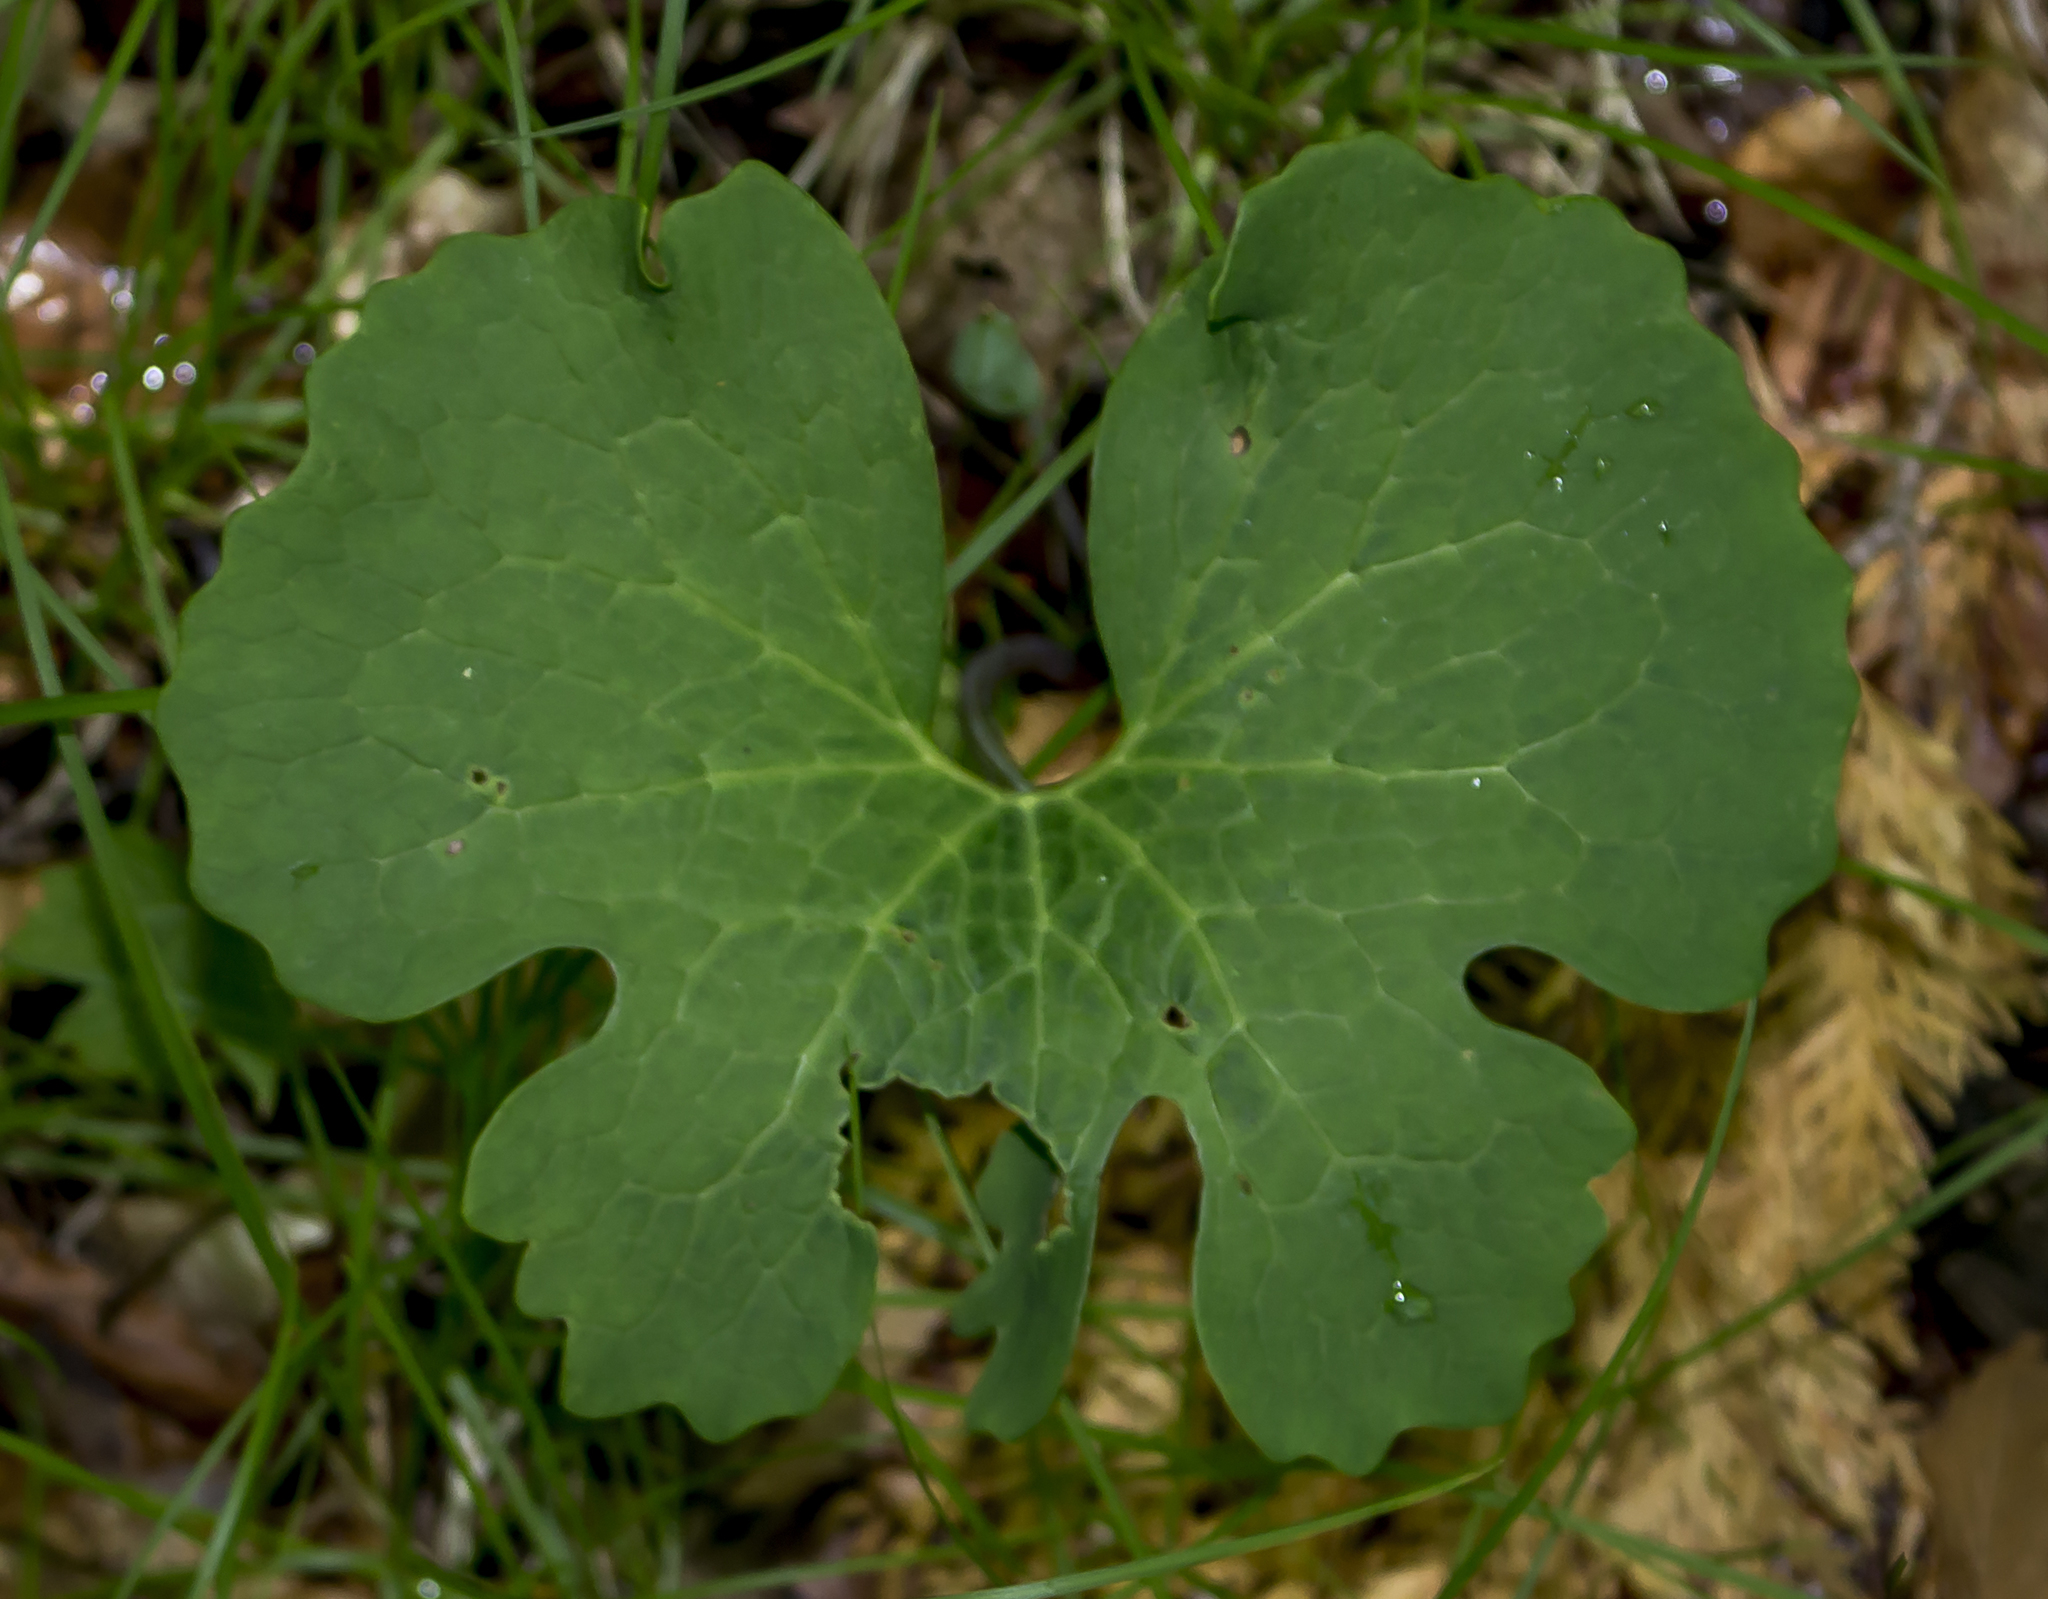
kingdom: Plantae
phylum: Tracheophyta
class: Magnoliopsida
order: Ranunculales
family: Papaveraceae
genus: Sanguinaria
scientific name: Sanguinaria canadensis
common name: Bloodroot
